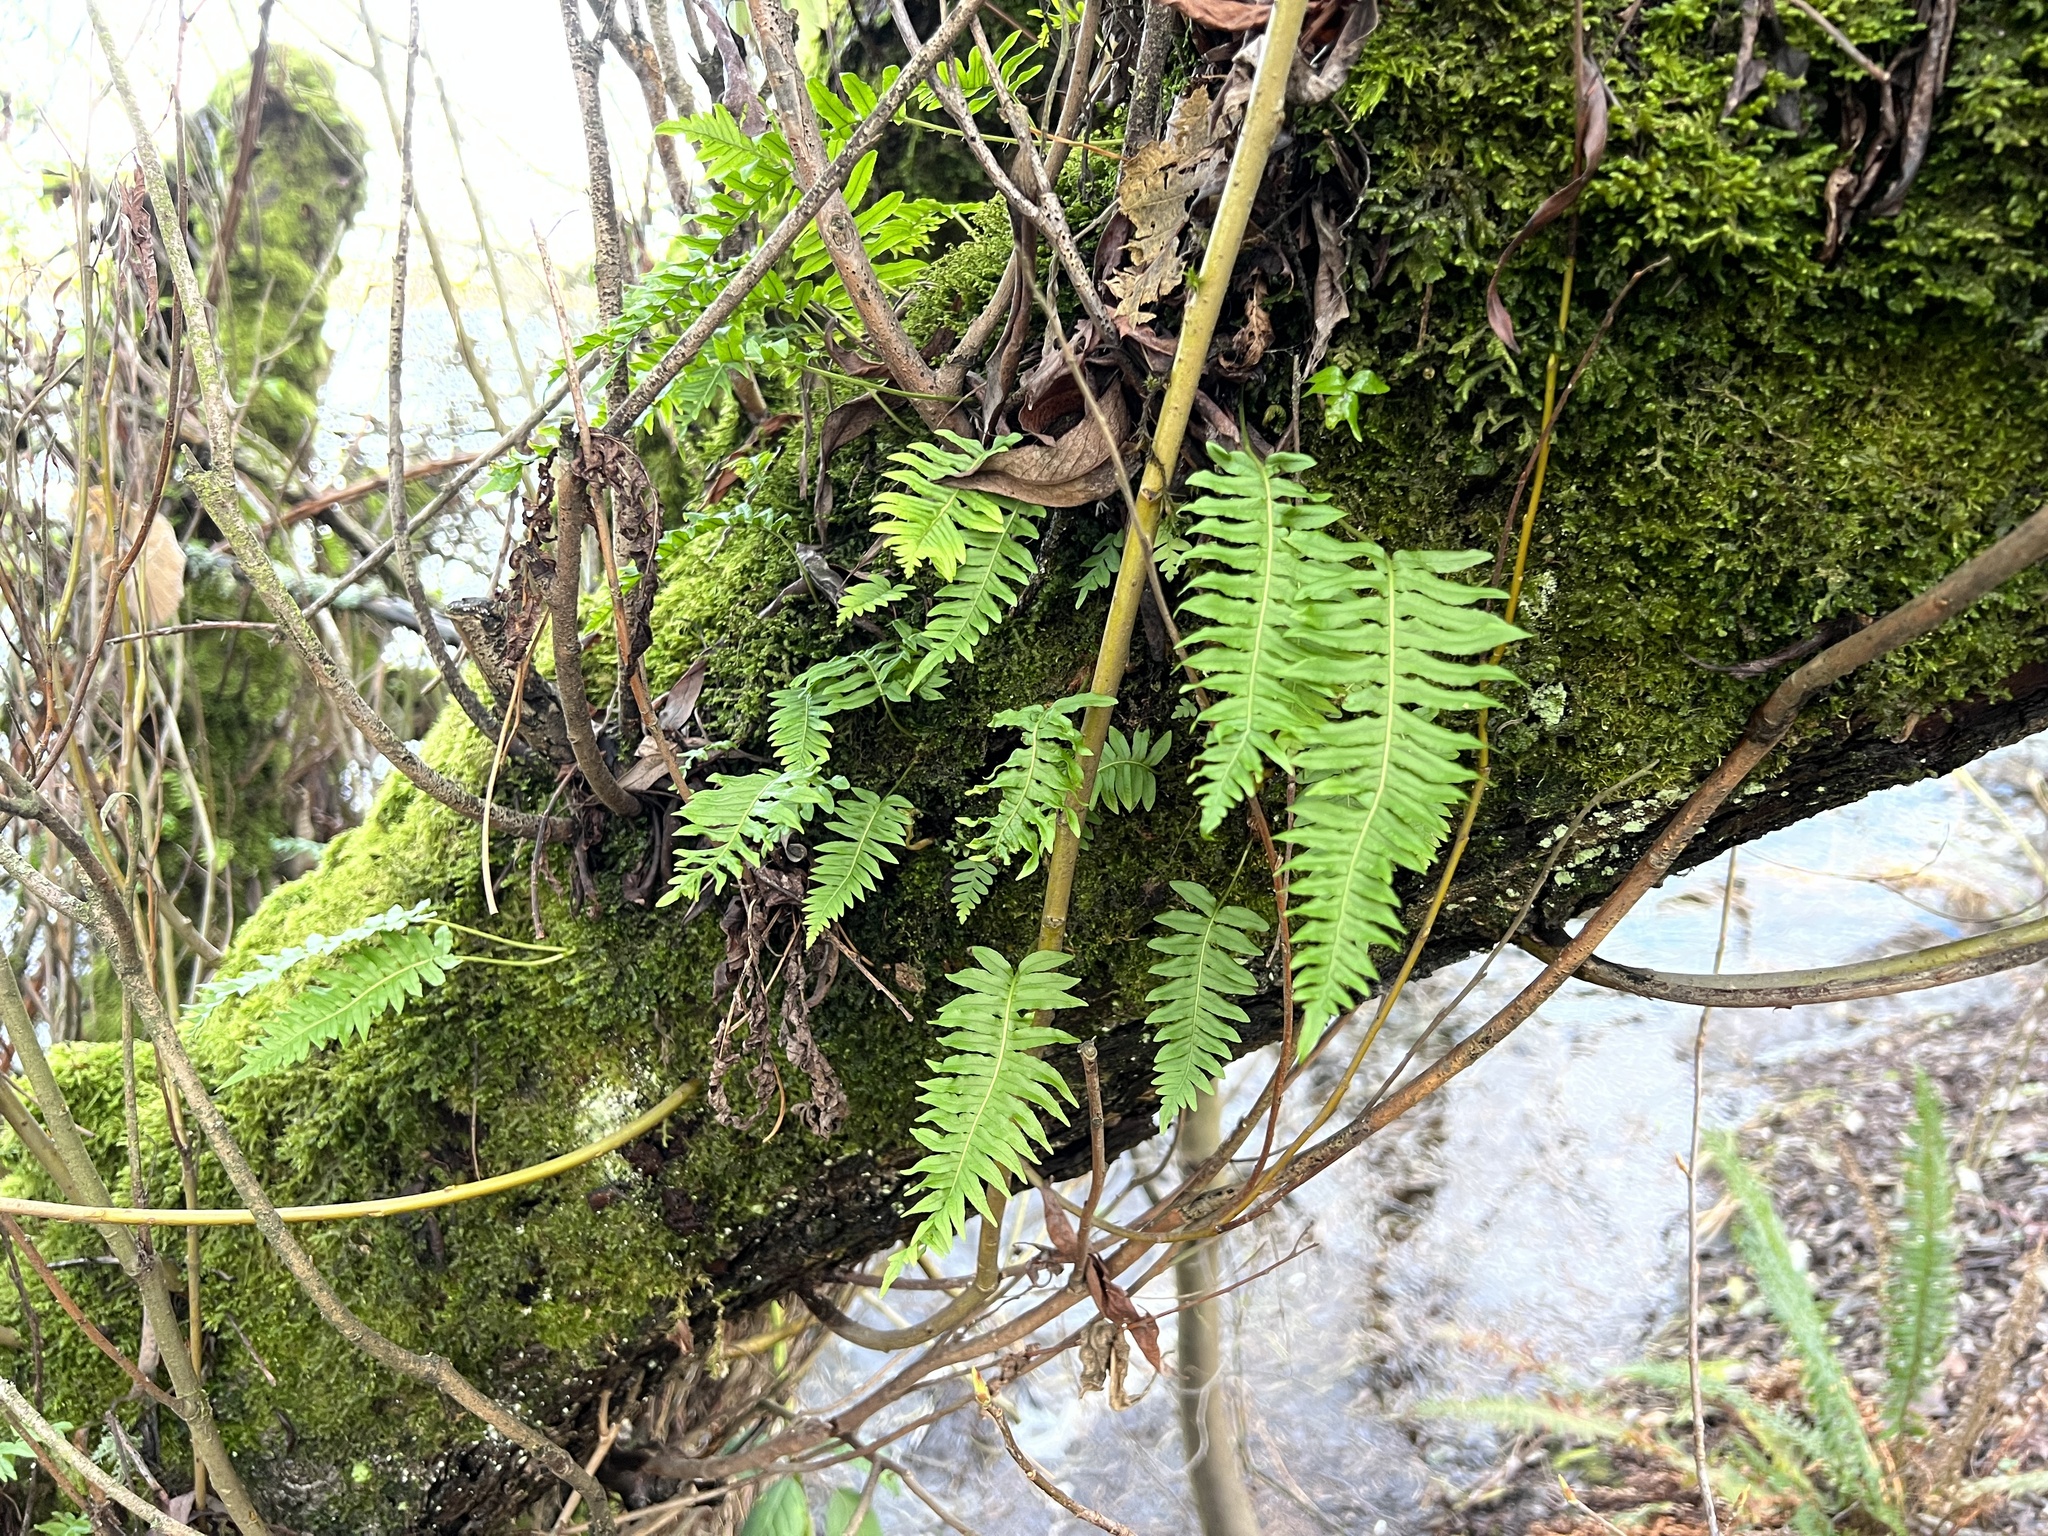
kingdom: Plantae
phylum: Tracheophyta
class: Polypodiopsida
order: Polypodiales
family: Polypodiaceae
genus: Polypodium
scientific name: Polypodium glycyrrhiza
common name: Licorice fern
